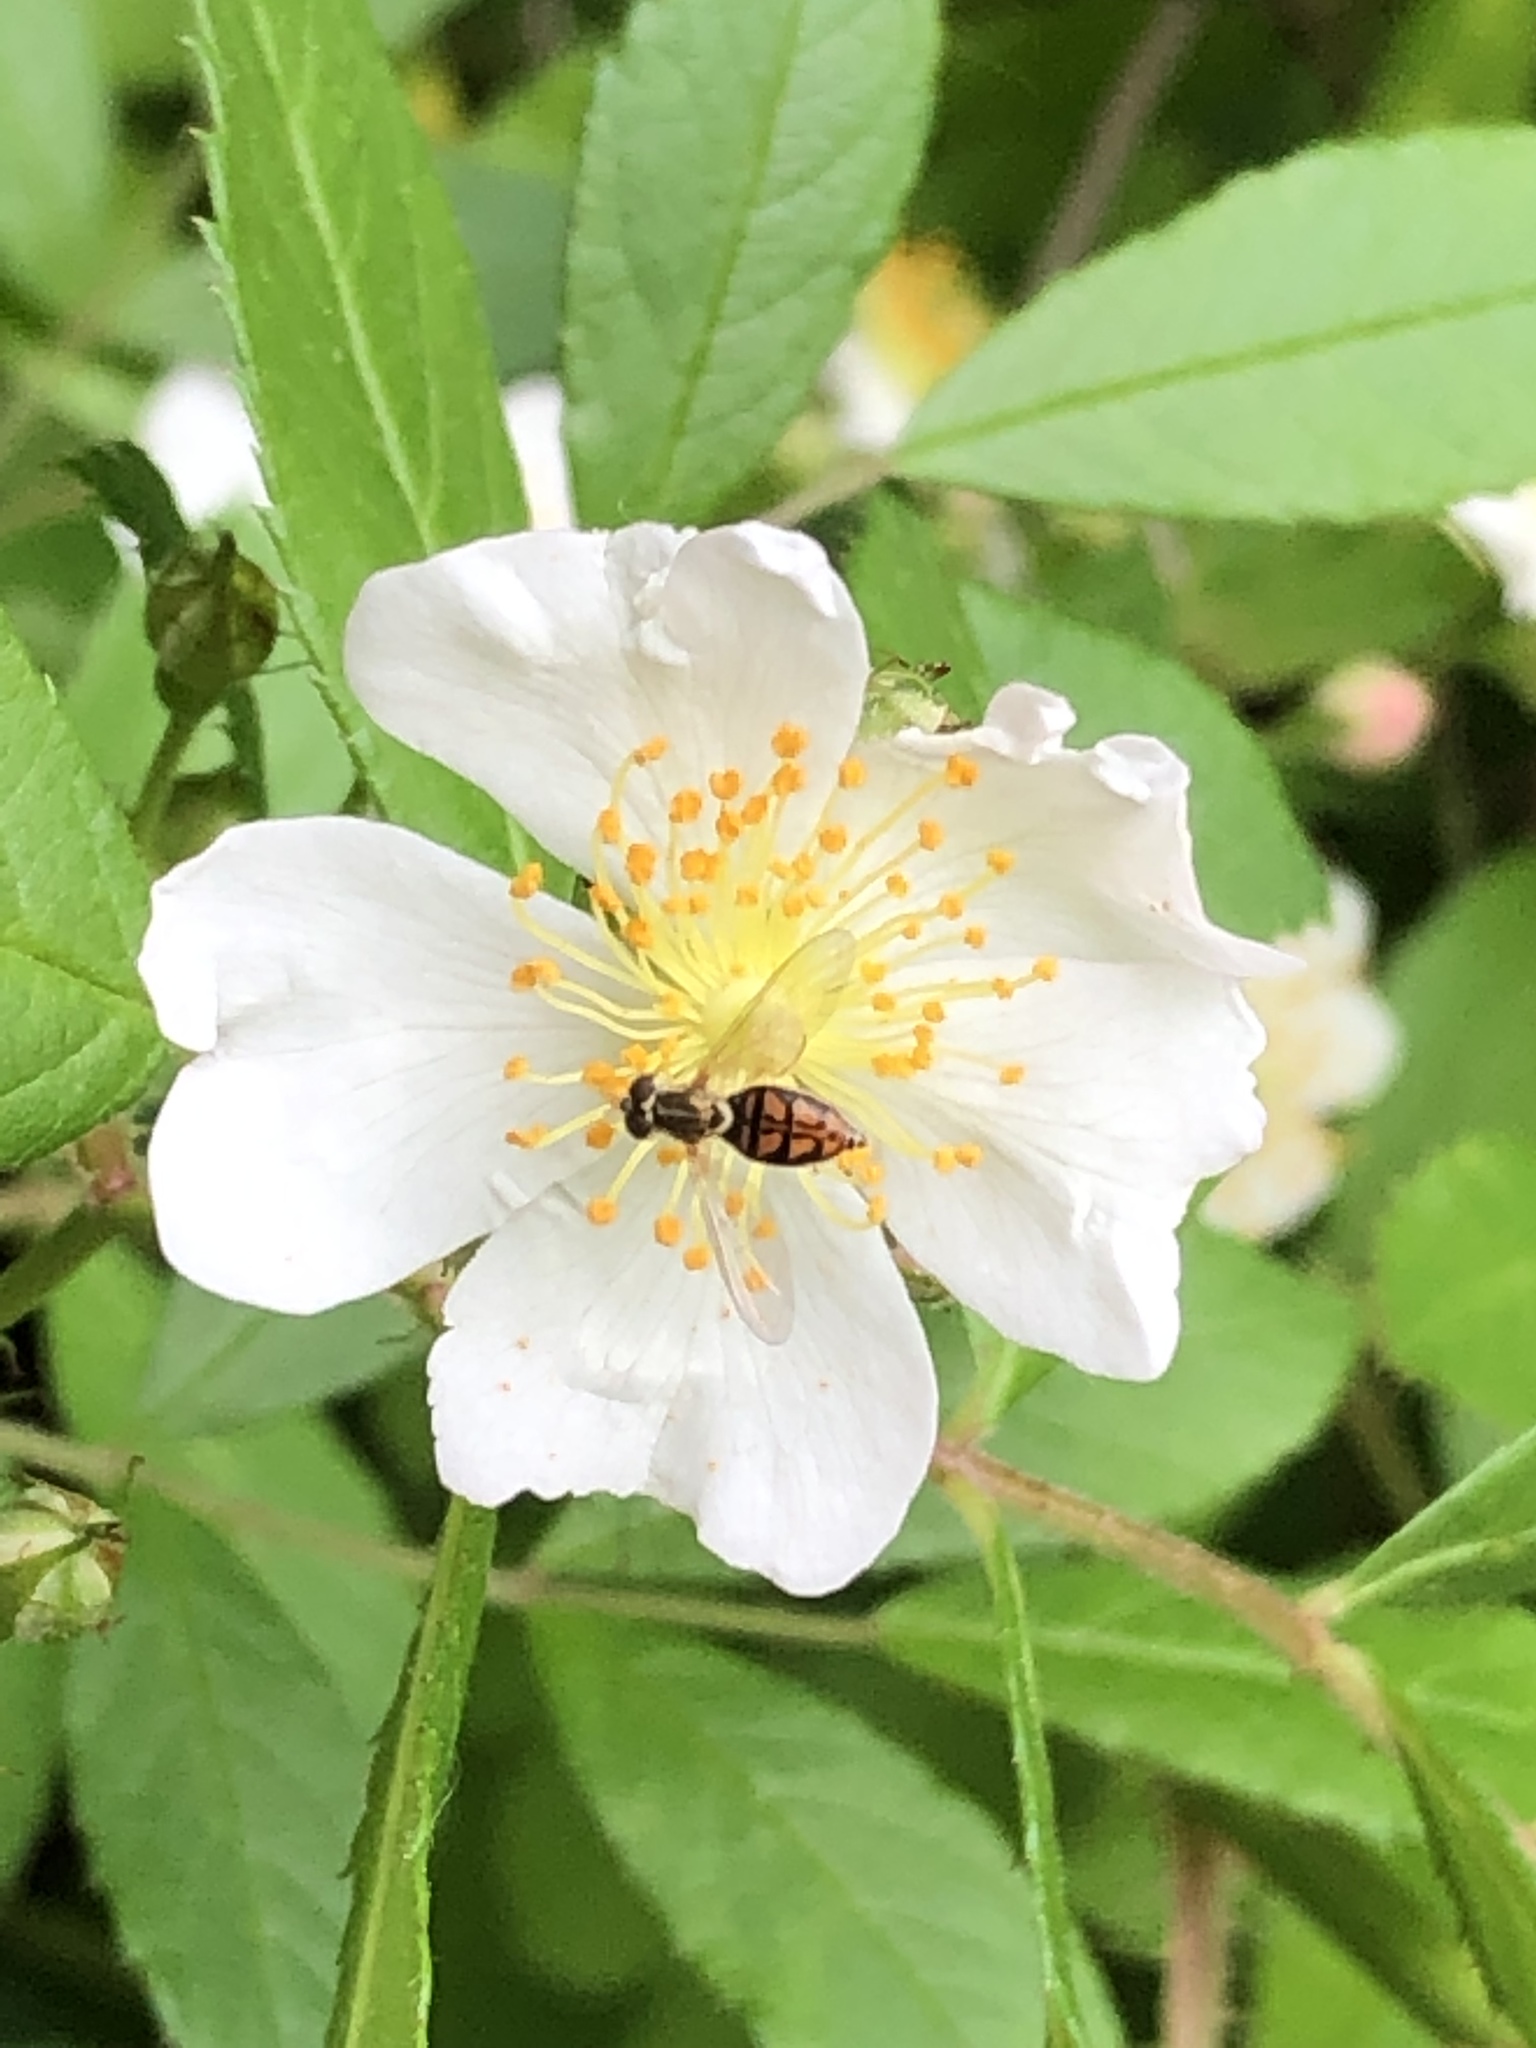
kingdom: Animalia
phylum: Arthropoda
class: Insecta
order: Diptera
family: Syrphidae
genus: Toxomerus
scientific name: Toxomerus marginatus
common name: Syrphid fly
